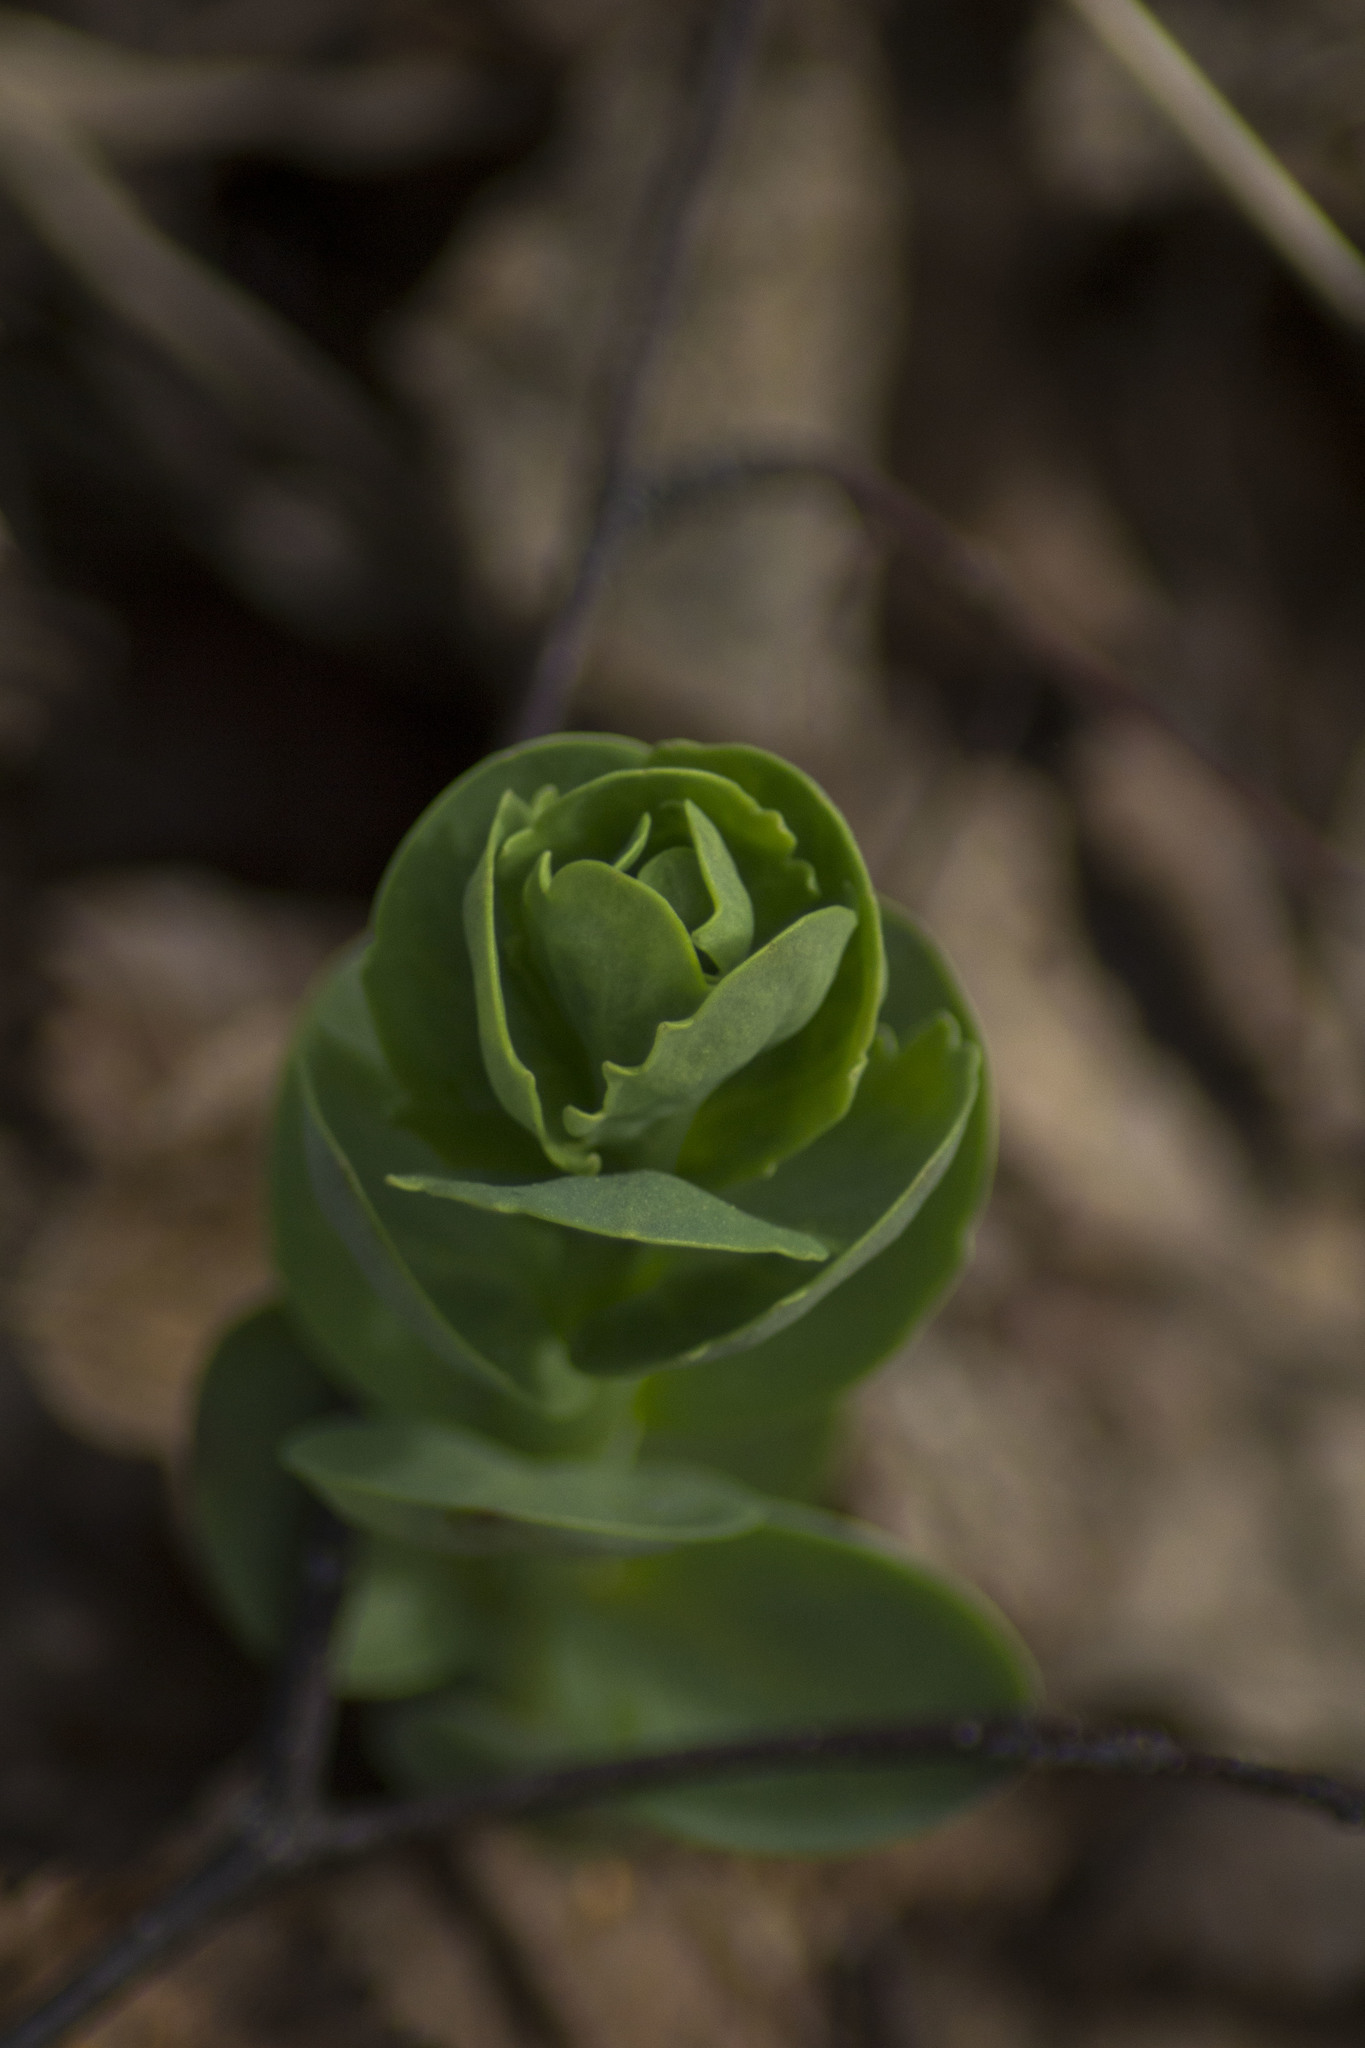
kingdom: Plantae
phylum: Tracheophyta
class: Magnoliopsida
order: Saxifragales
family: Crassulaceae
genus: Hylotelephium
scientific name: Hylotelephium telephium
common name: Live-forever
